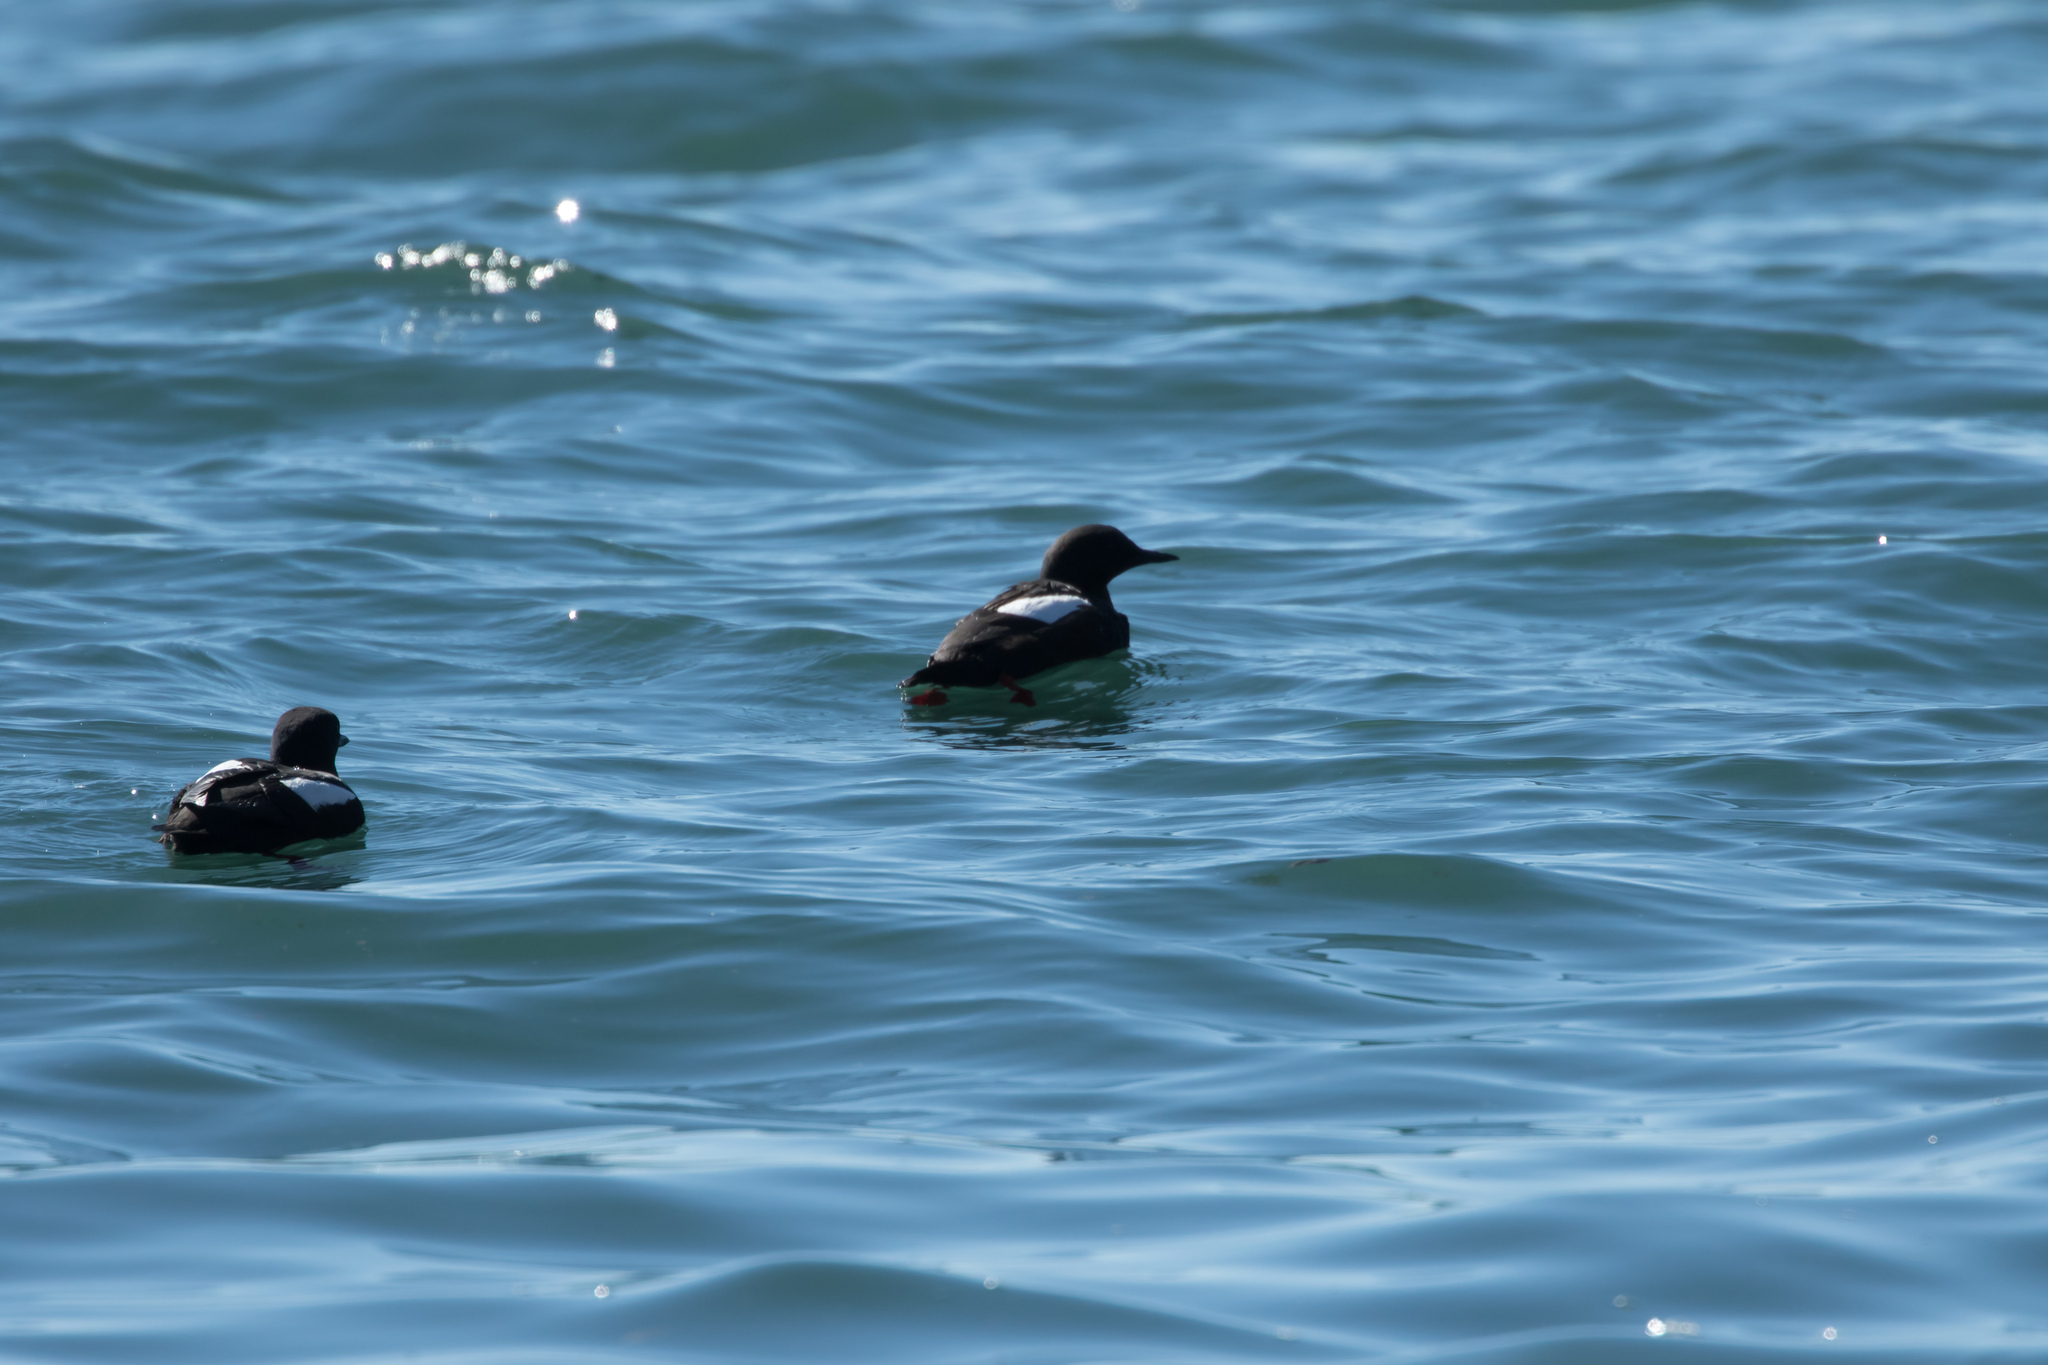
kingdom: Animalia
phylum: Chordata
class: Aves
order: Charadriiformes
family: Alcidae
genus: Cepphus
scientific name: Cepphus grylle
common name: Black guillemot
